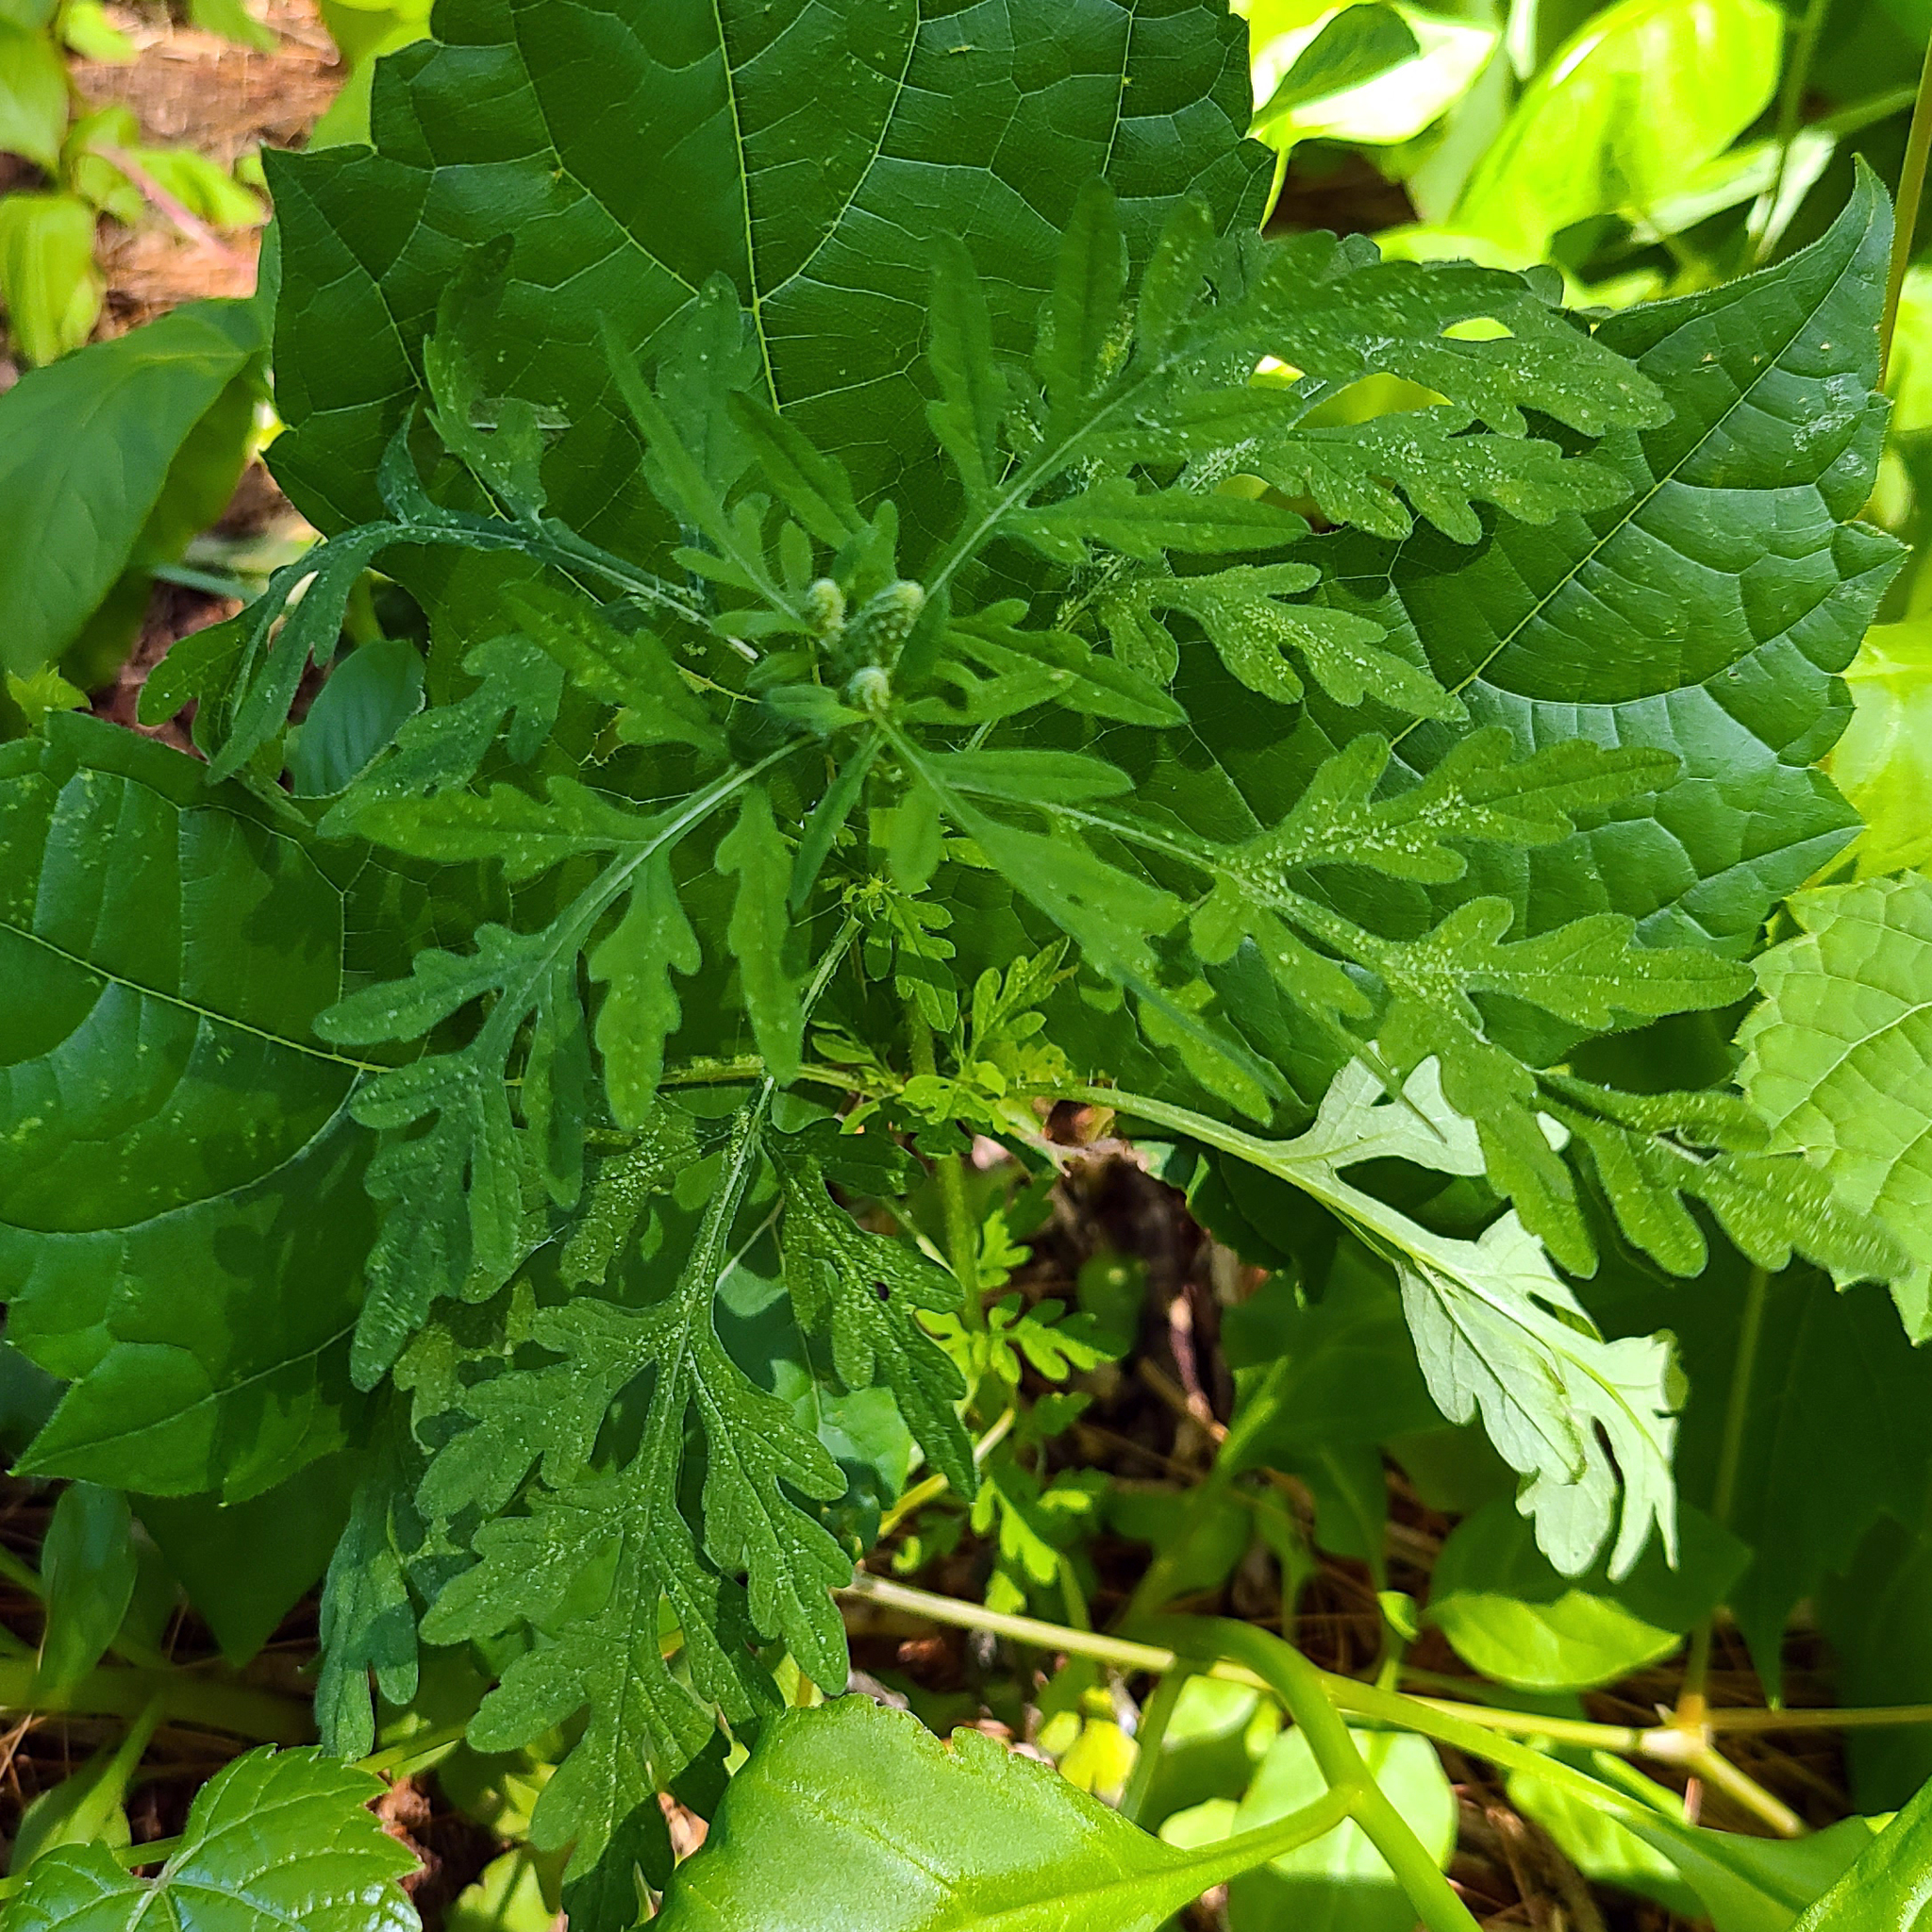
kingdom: Plantae
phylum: Tracheophyta
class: Magnoliopsida
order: Asterales
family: Asteraceae
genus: Ambrosia
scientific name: Ambrosia artemisiifolia
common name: Annual ragweed
